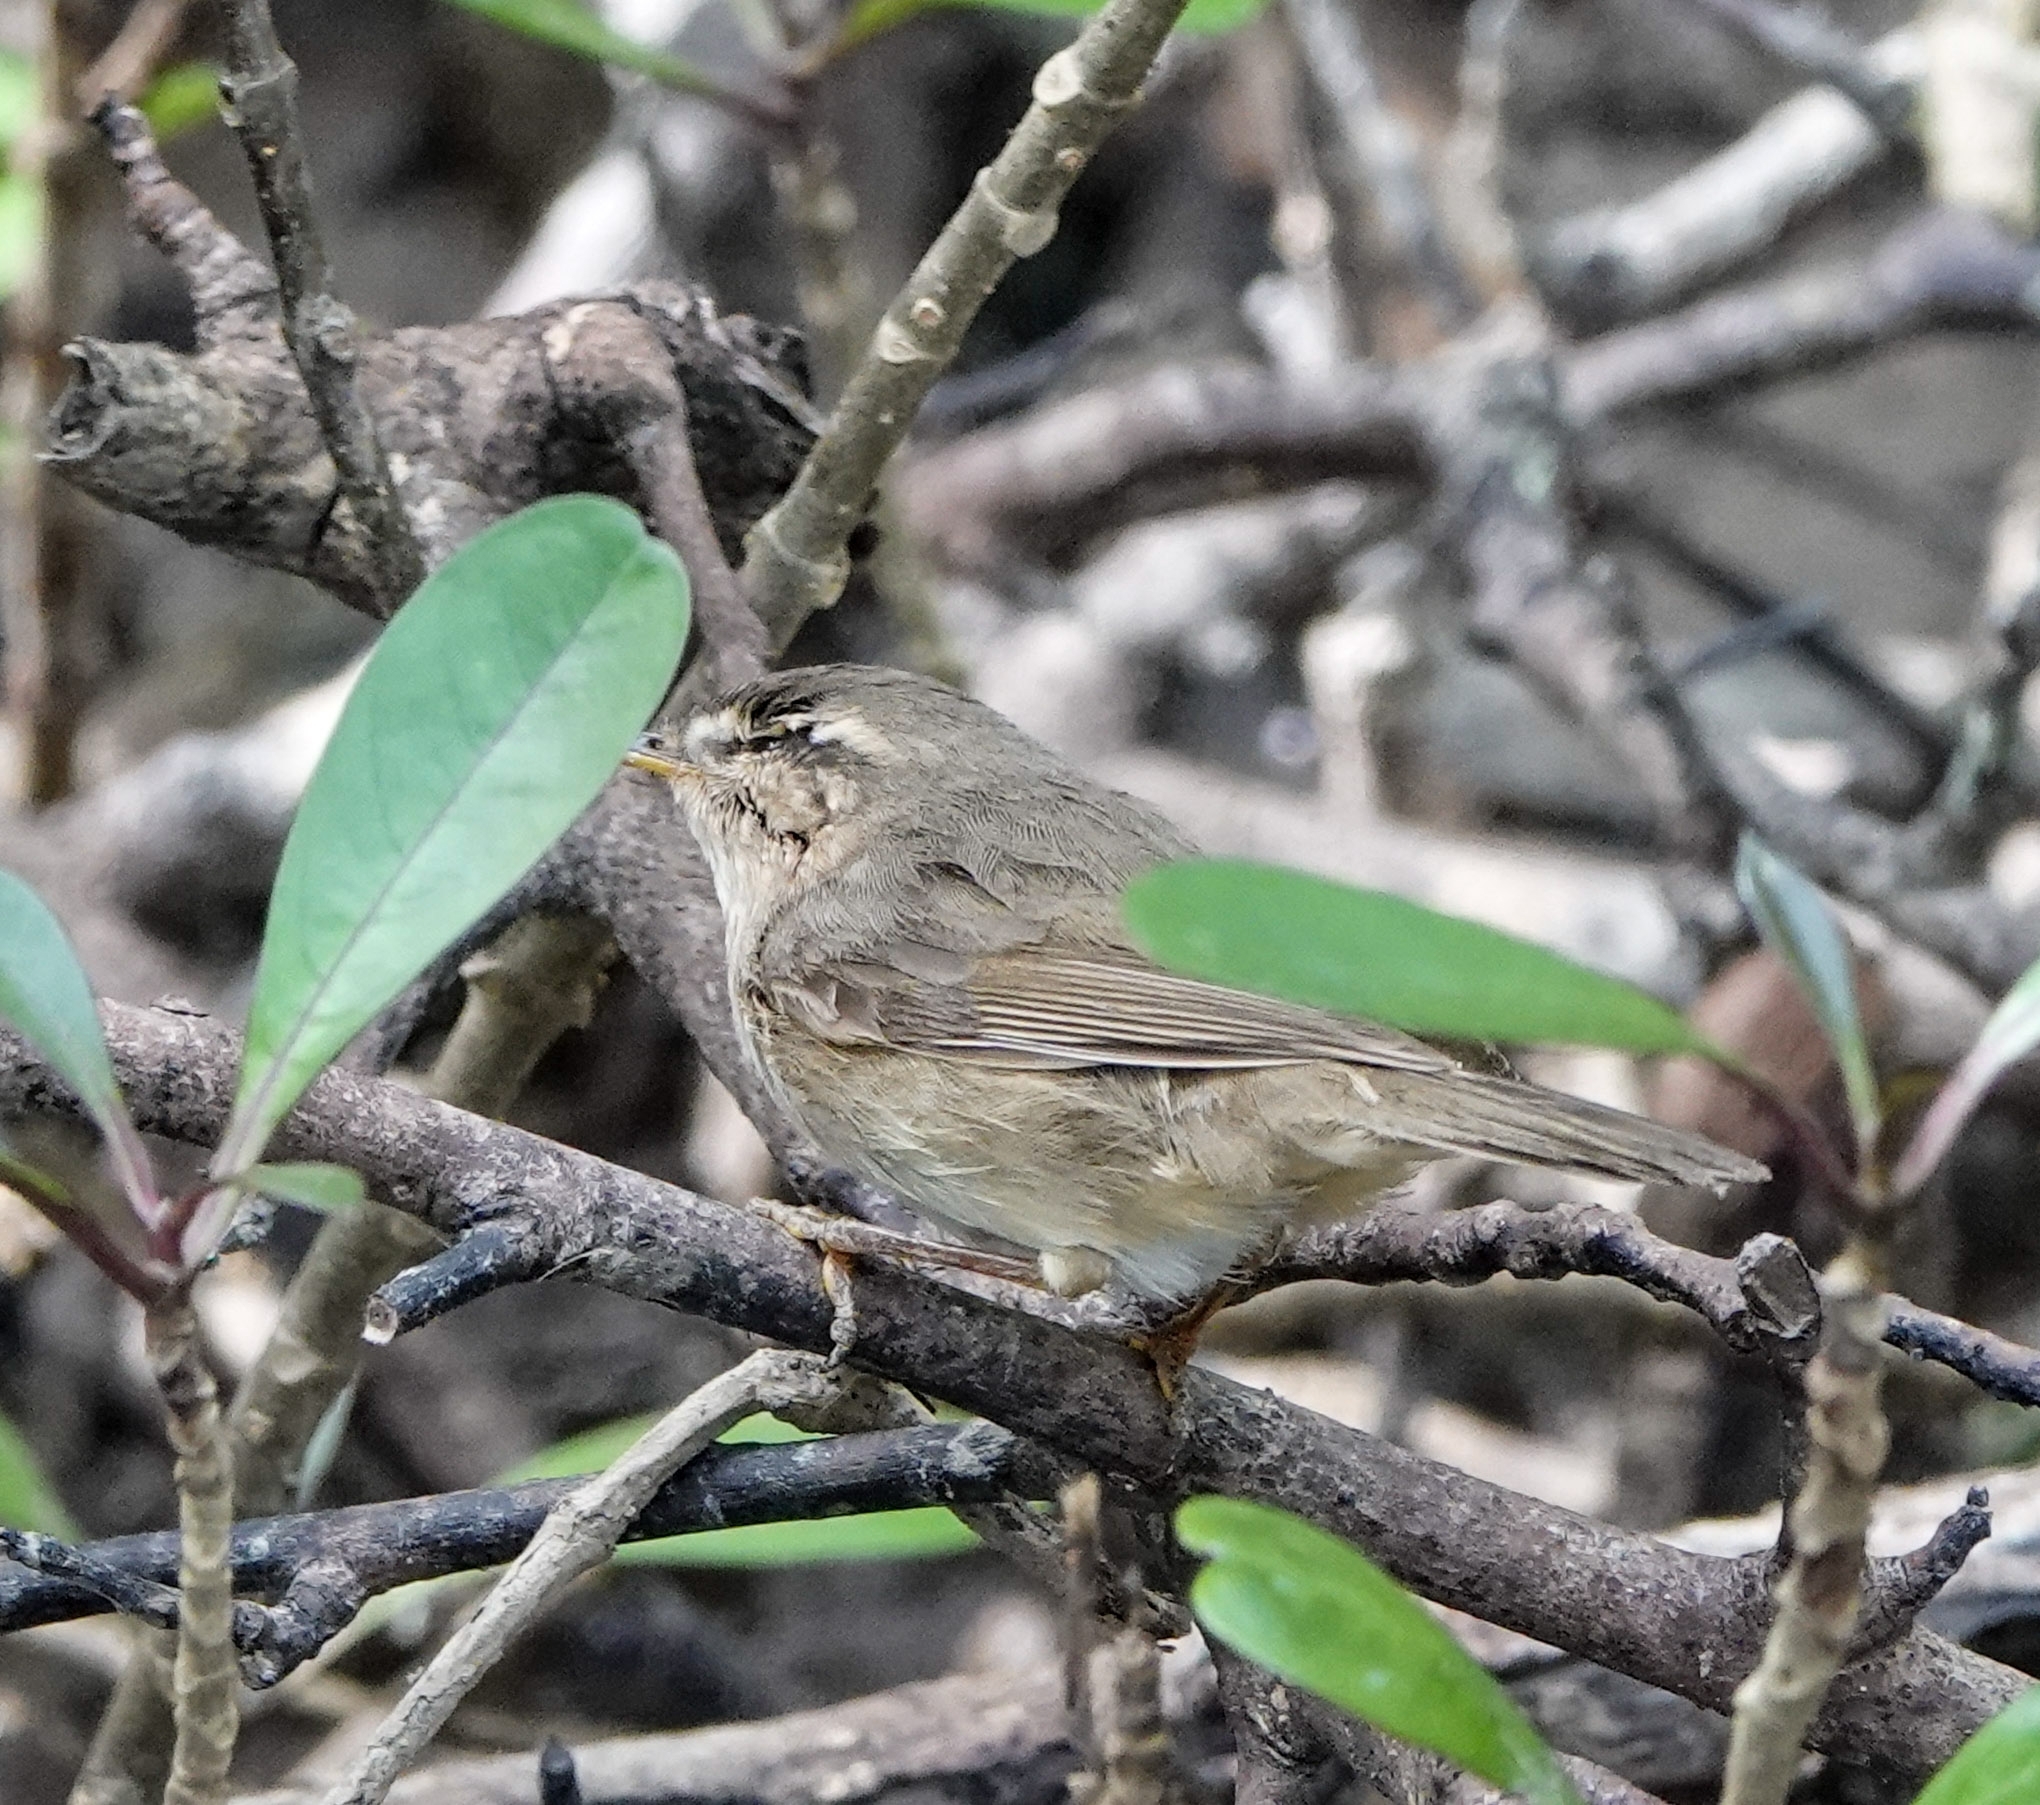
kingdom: Animalia
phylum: Chordata
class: Aves
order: Passeriformes
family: Phylloscopidae
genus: Phylloscopus
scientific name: Phylloscopus fuscatus
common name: Dusky warbler
